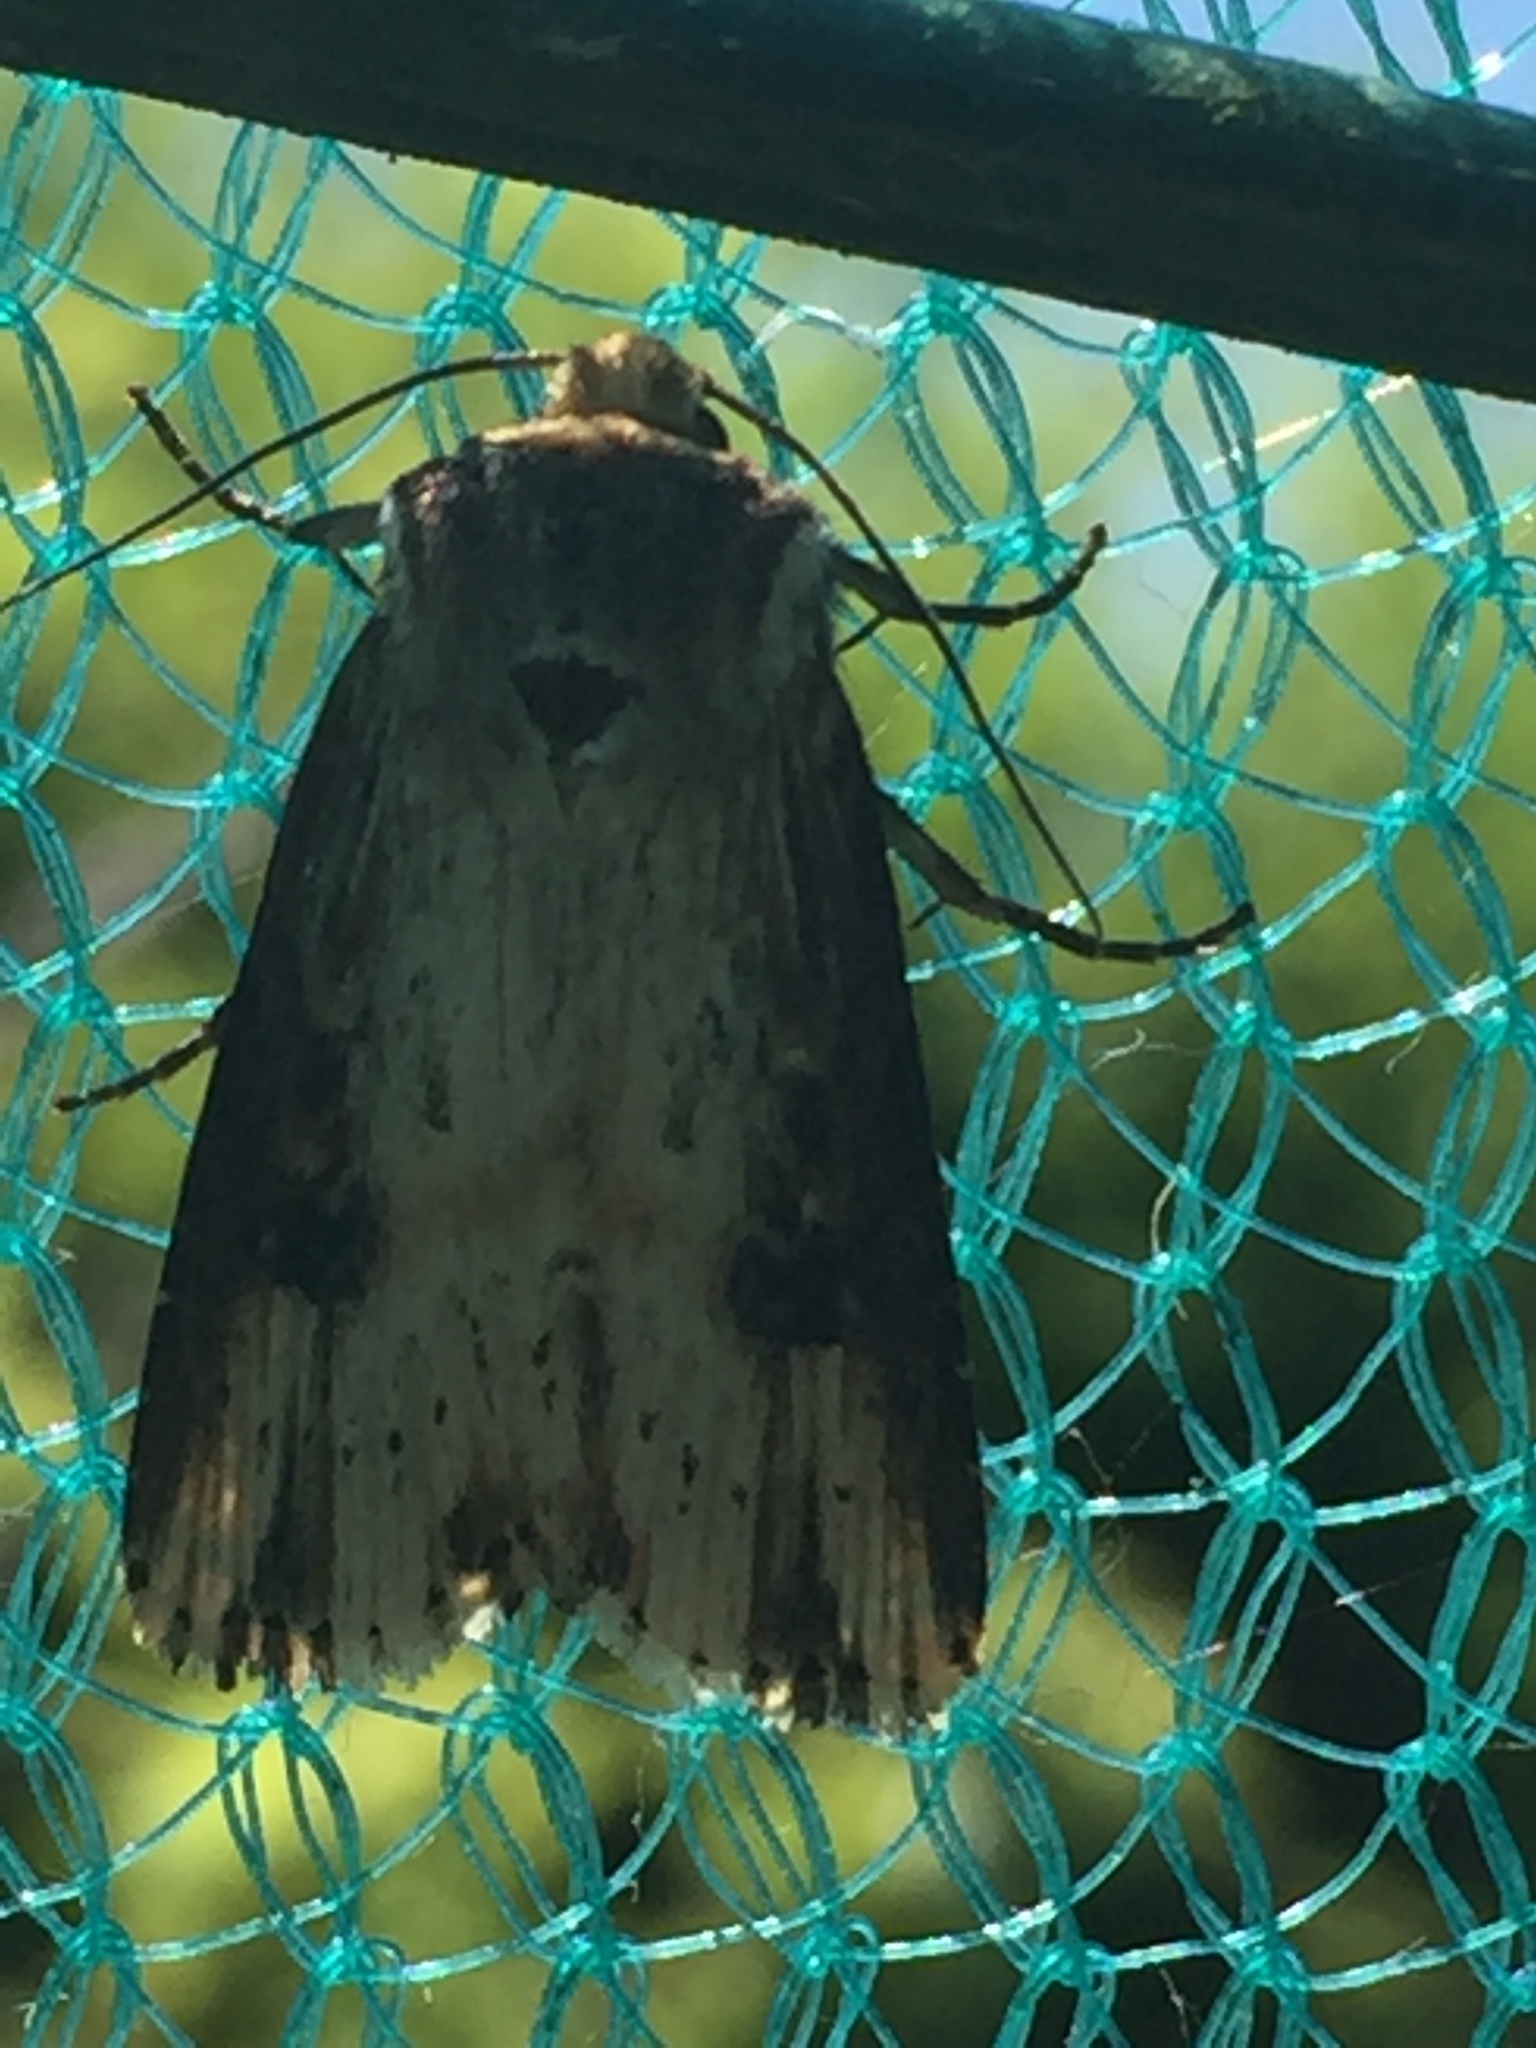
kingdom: Animalia
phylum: Arthropoda
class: Insecta
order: Lepidoptera
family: Noctuidae
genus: Axylia
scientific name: Axylia putris
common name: Flame
